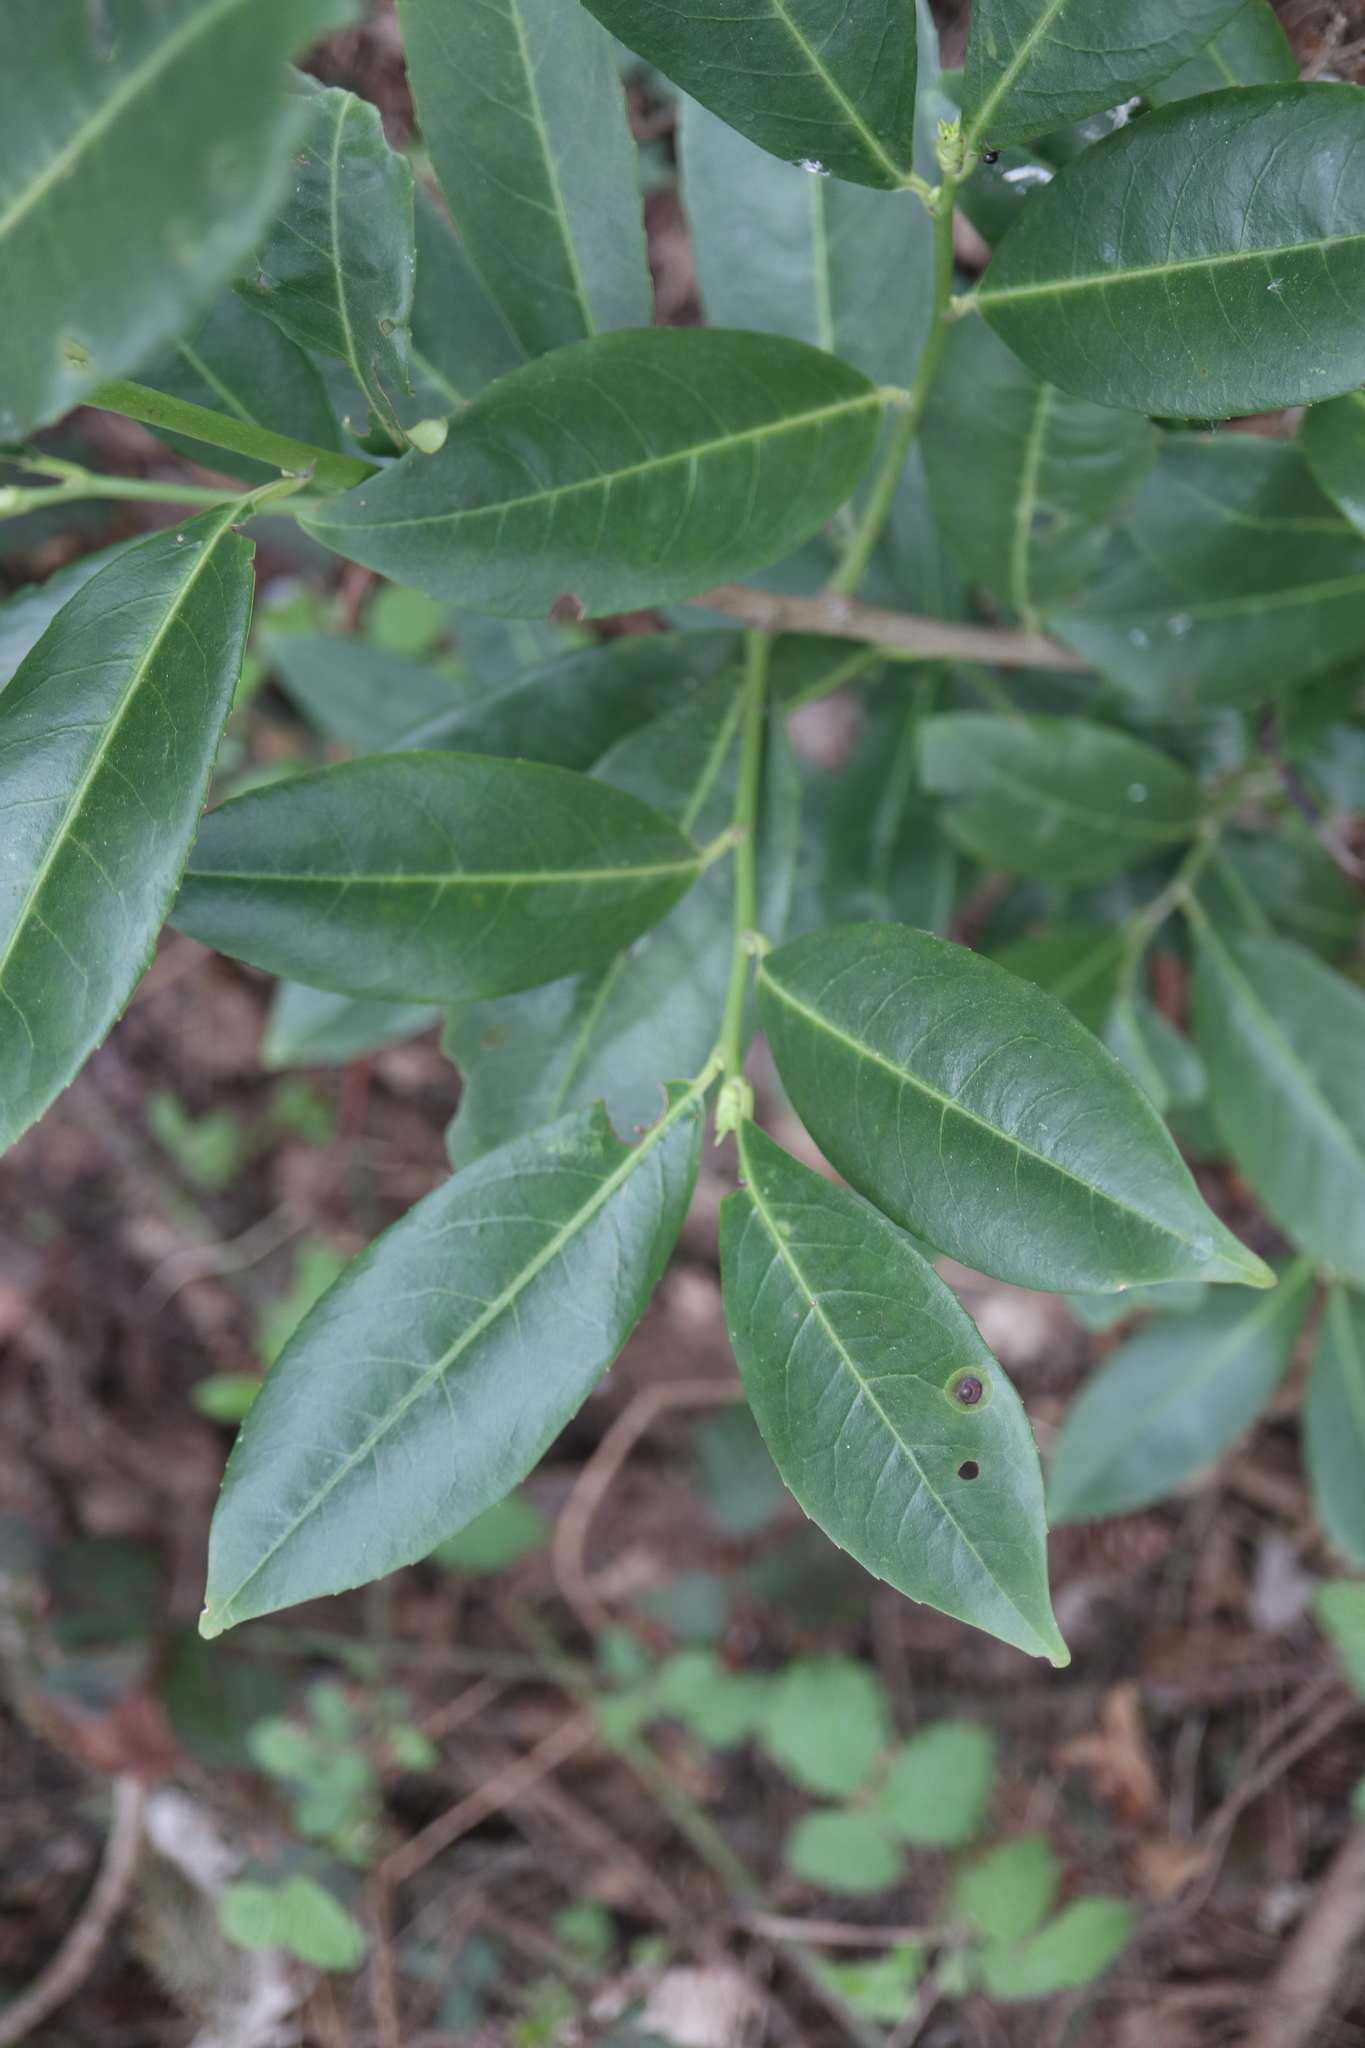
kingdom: Plantae
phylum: Tracheophyta
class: Magnoliopsida
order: Rosales
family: Rosaceae
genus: Prunus
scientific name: Prunus laurocerasus
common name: Cherry laurel
